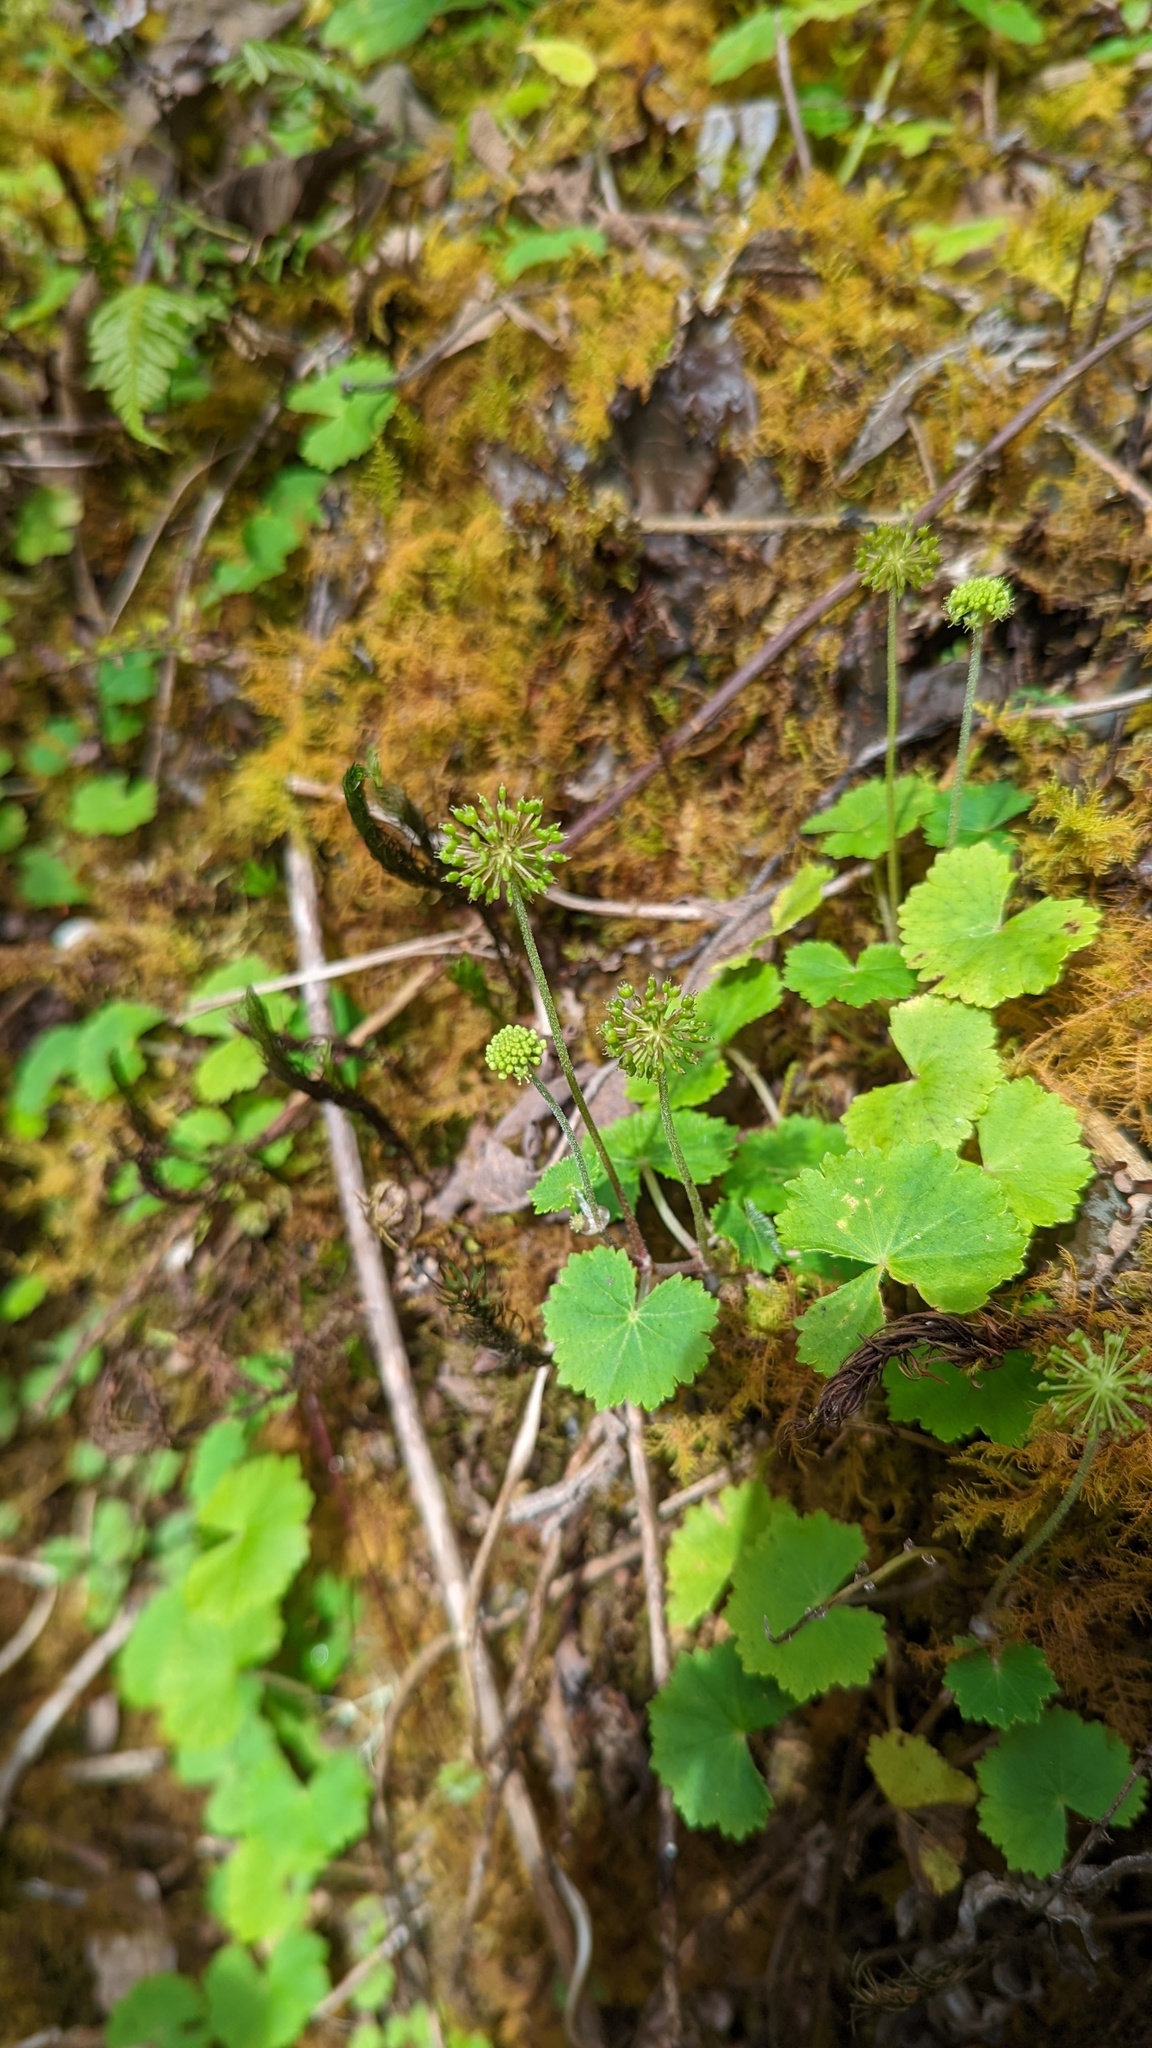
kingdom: Plantae
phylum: Tracheophyta
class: Magnoliopsida
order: Apiales
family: Araliaceae
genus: Hydrocotyle
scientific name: Hydrocotyle mexicana
